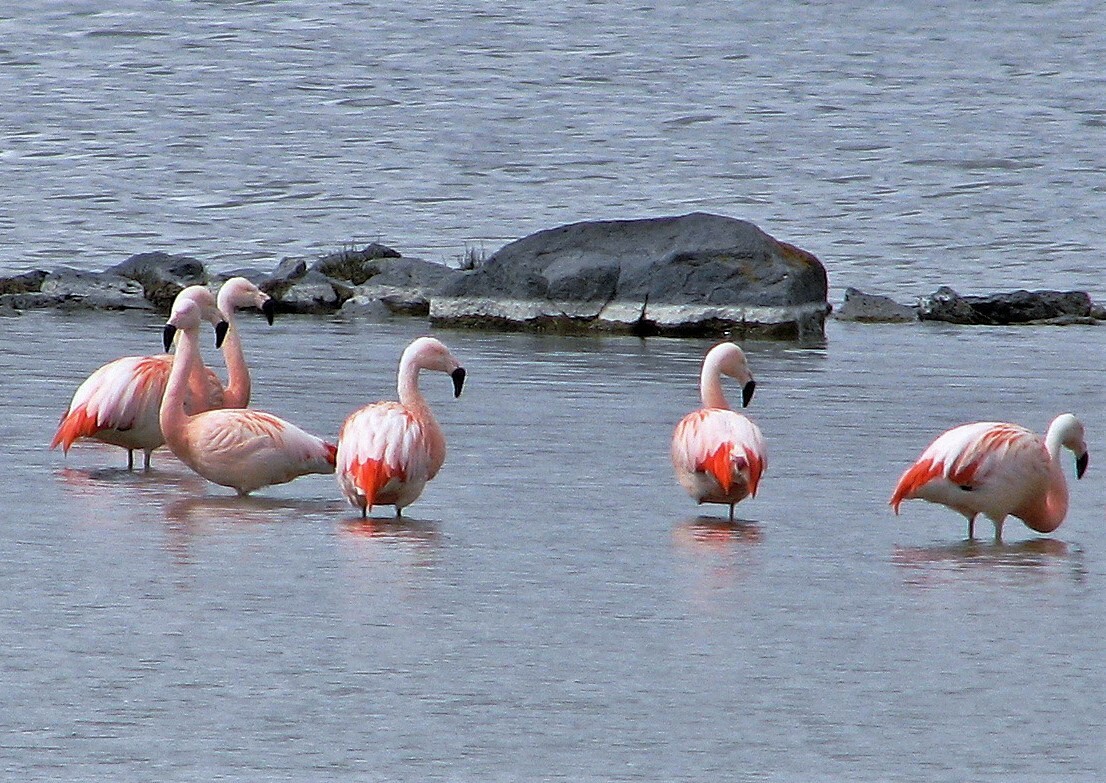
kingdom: Animalia
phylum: Chordata
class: Aves
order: Phoenicopteriformes
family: Phoenicopteridae
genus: Phoenicopterus
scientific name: Phoenicopterus chilensis
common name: Chilean flamingo
